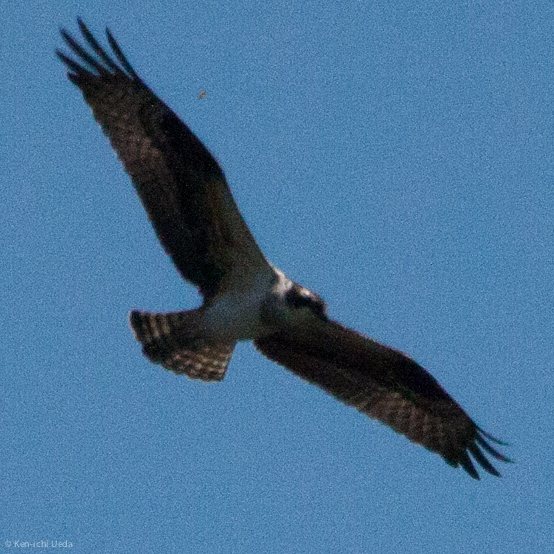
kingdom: Animalia
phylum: Chordata
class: Aves
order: Accipitriformes
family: Pandionidae
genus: Pandion
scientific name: Pandion haliaetus
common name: Osprey
